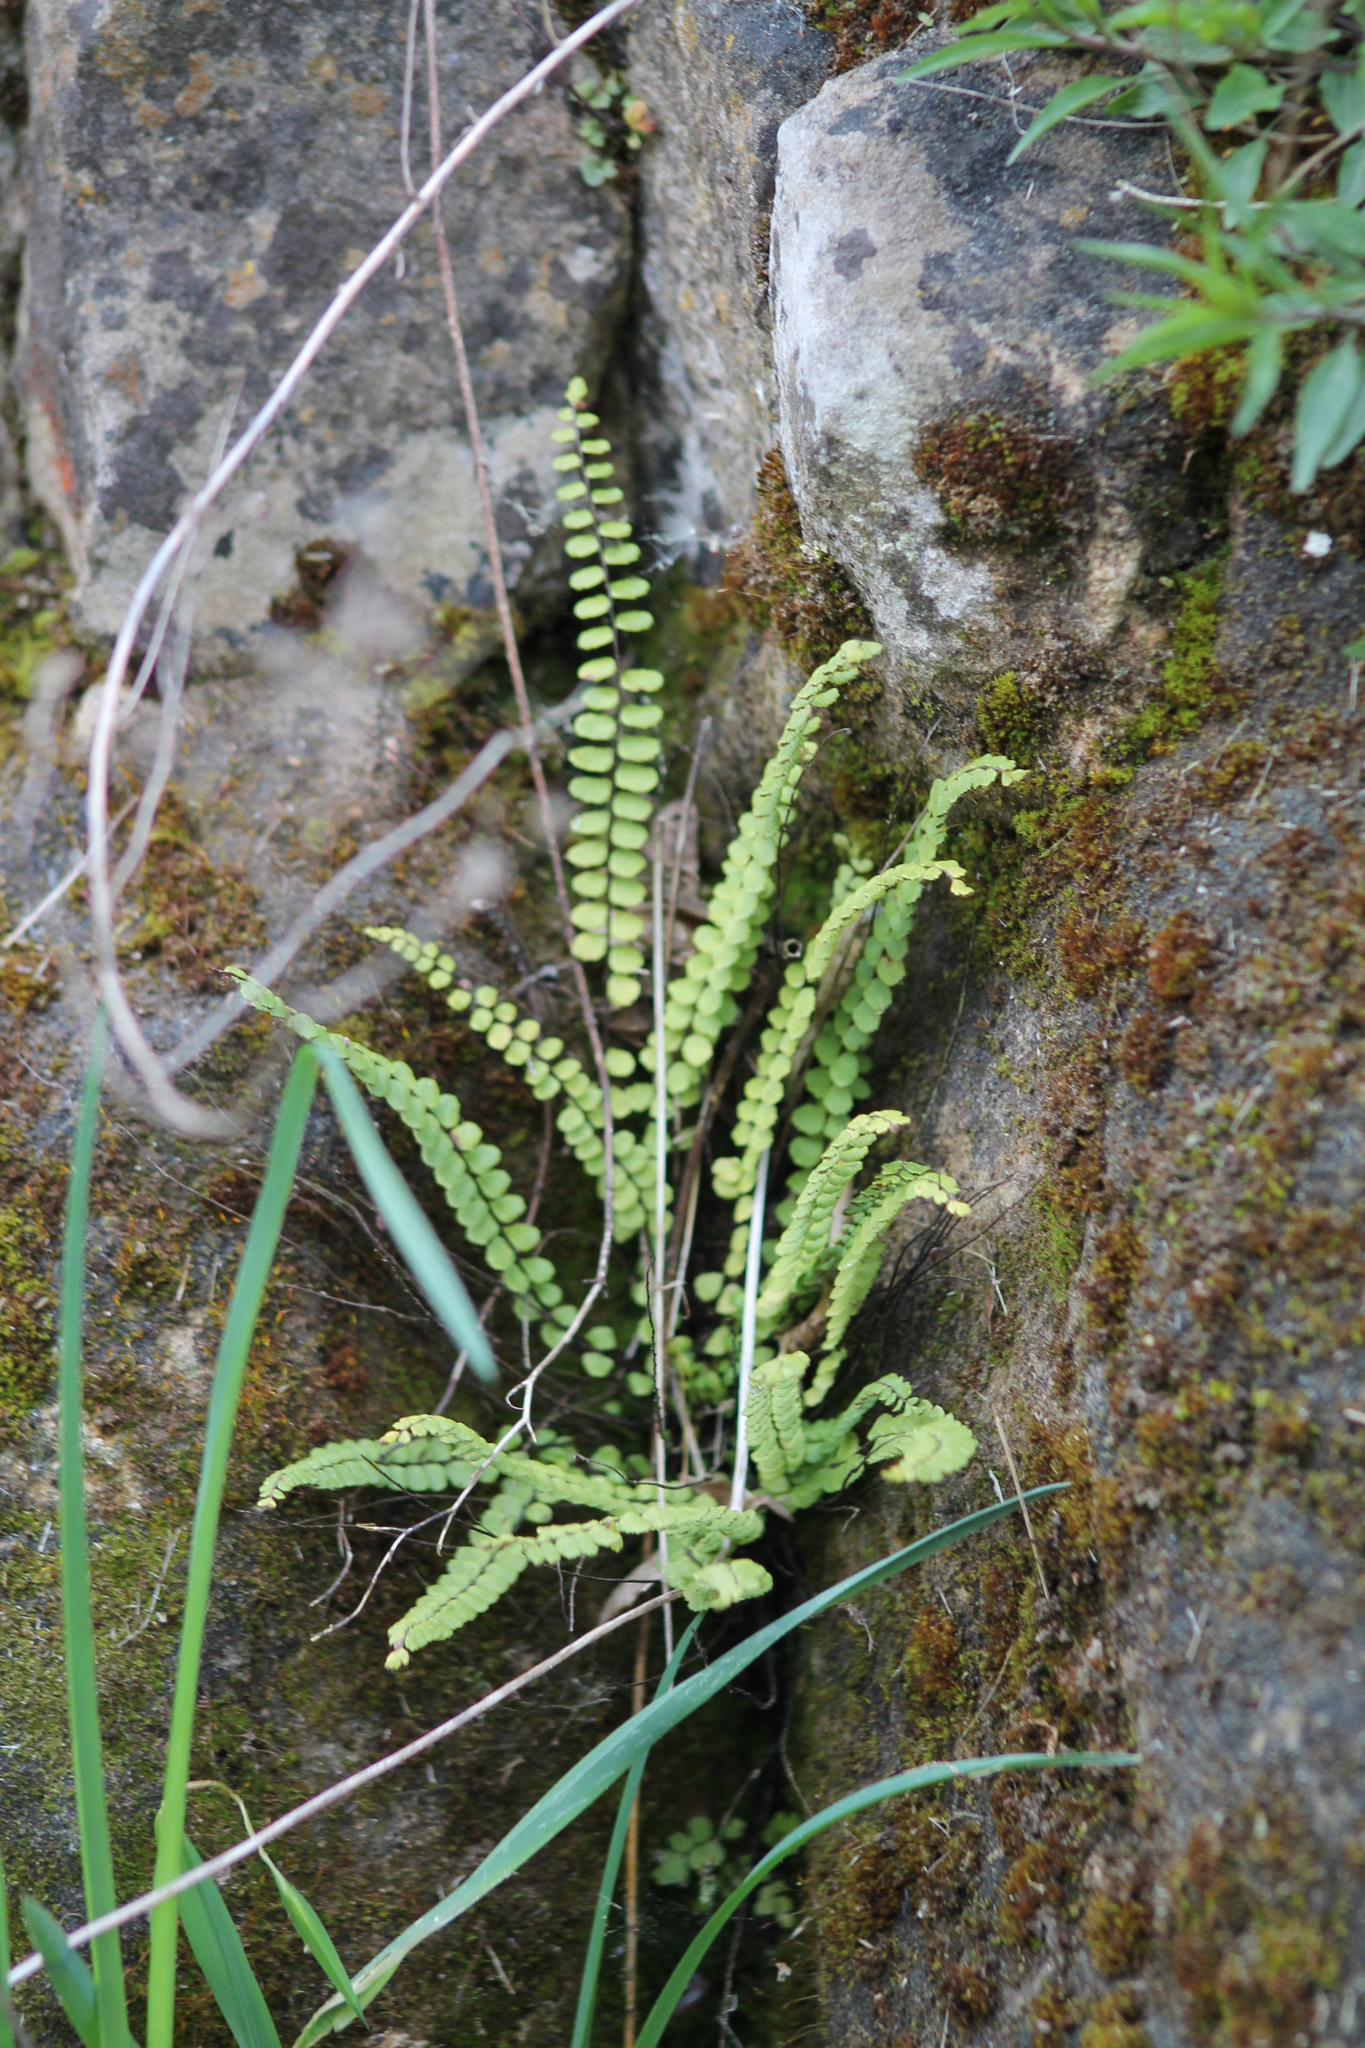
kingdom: Plantae
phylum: Tracheophyta
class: Polypodiopsida
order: Polypodiales
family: Aspleniaceae
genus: Asplenium
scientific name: Asplenium trichomanes
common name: Maidenhair spleenwort
